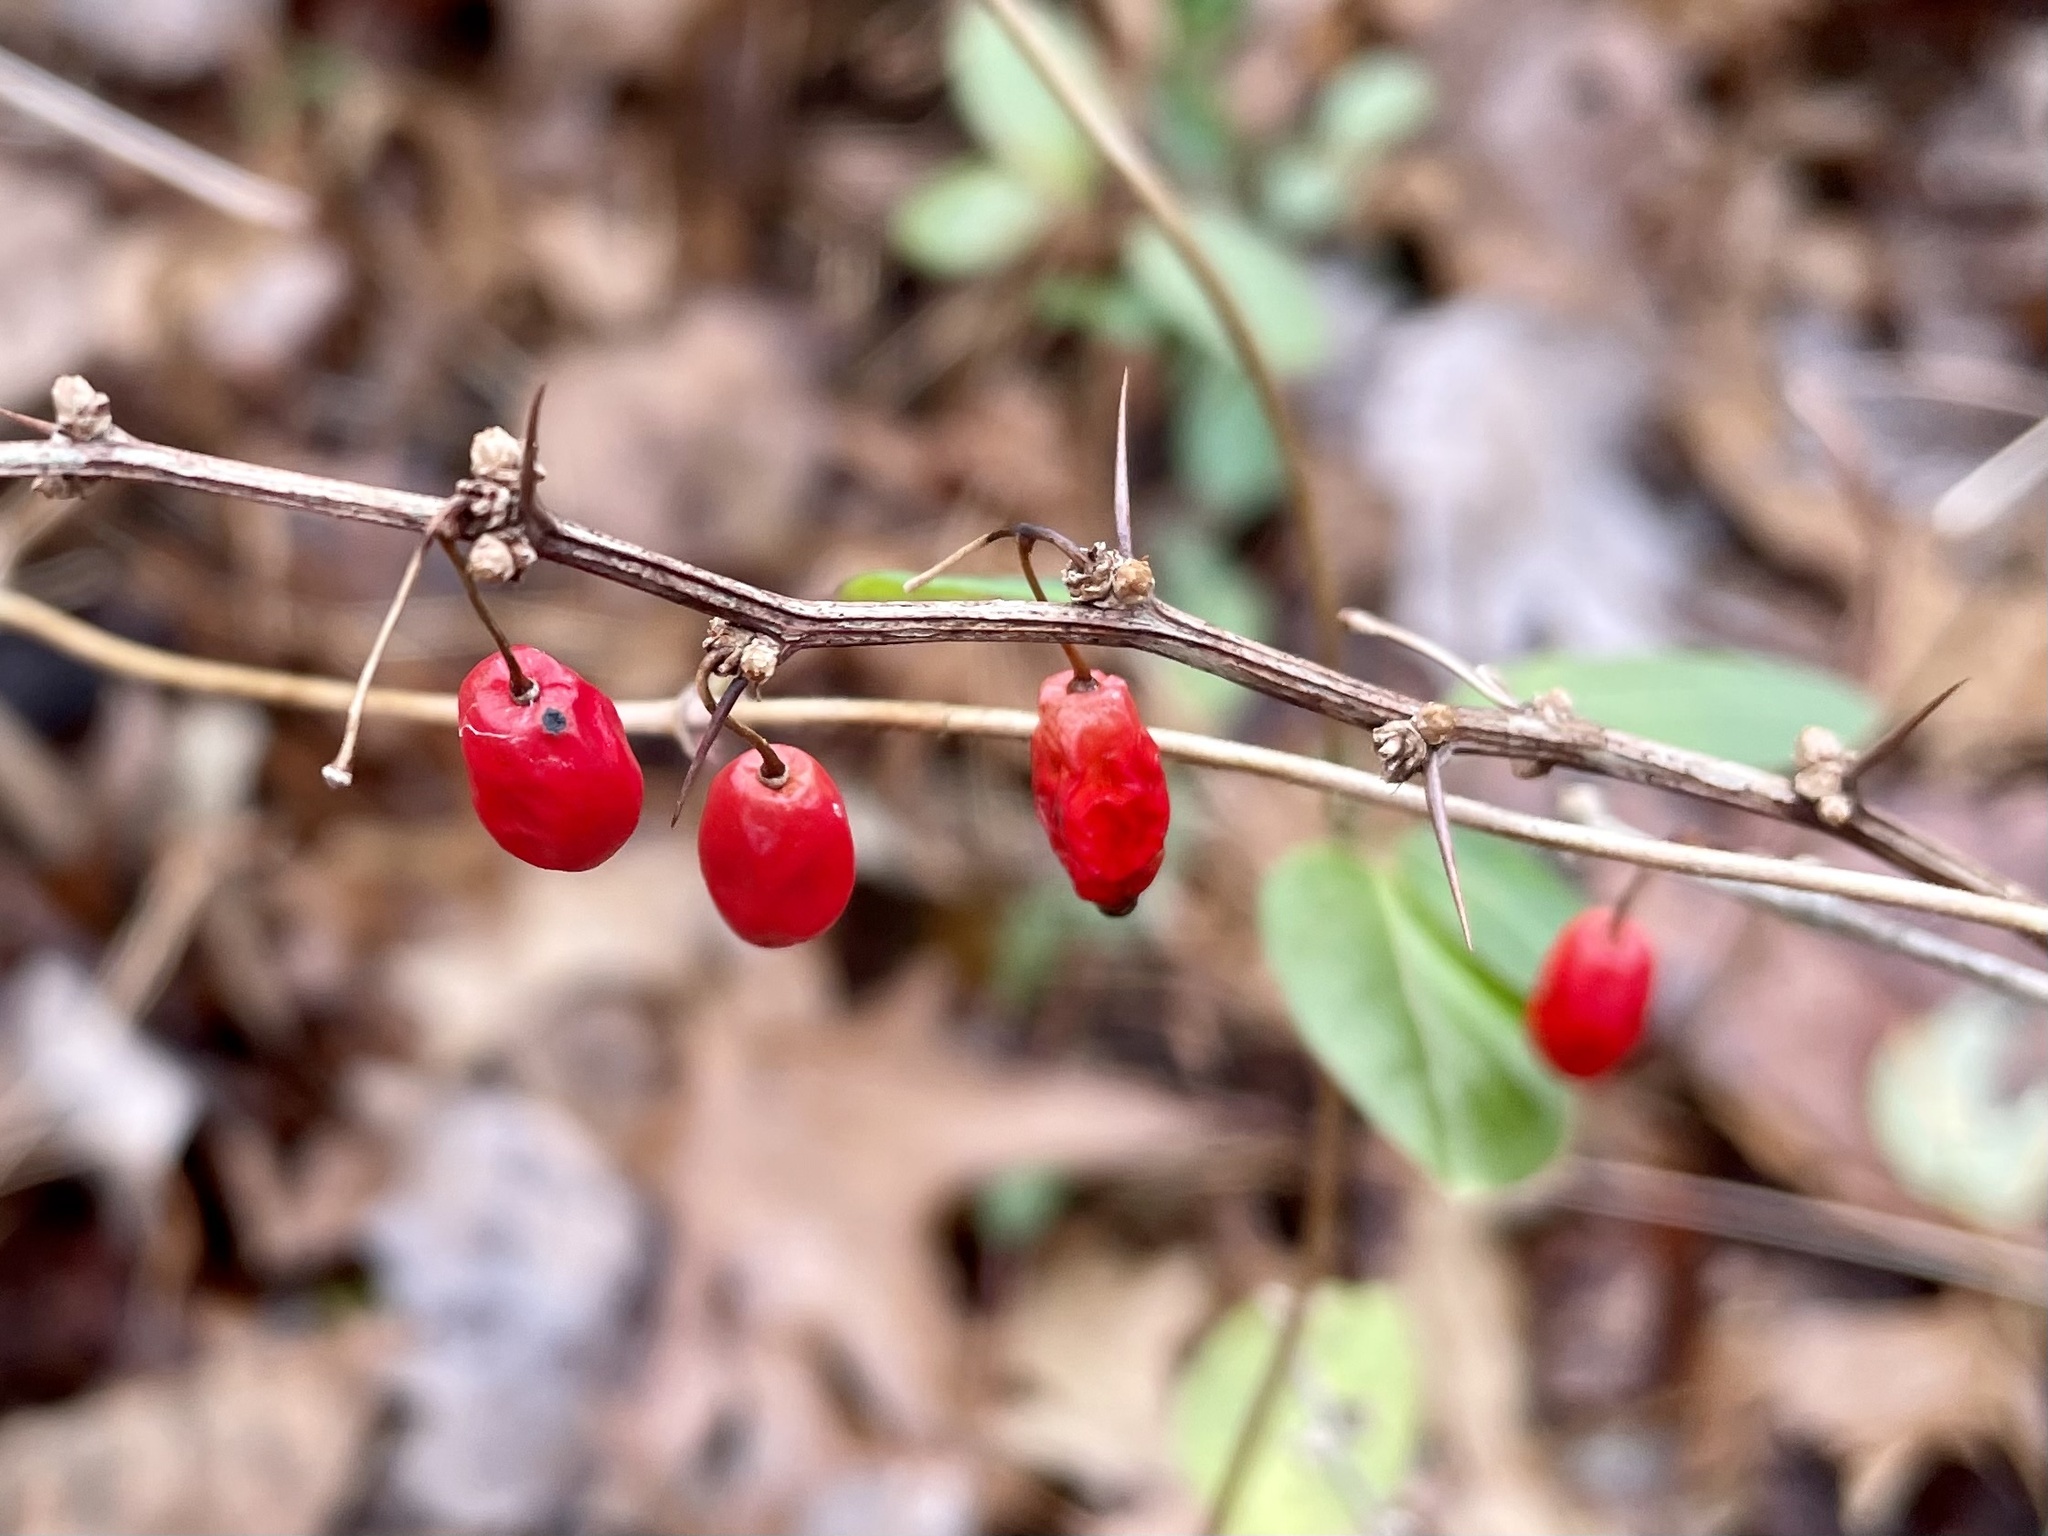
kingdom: Plantae
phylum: Tracheophyta
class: Magnoliopsida
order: Ranunculales
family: Berberidaceae
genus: Berberis
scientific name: Berberis thunbergii
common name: Japanese barberry
